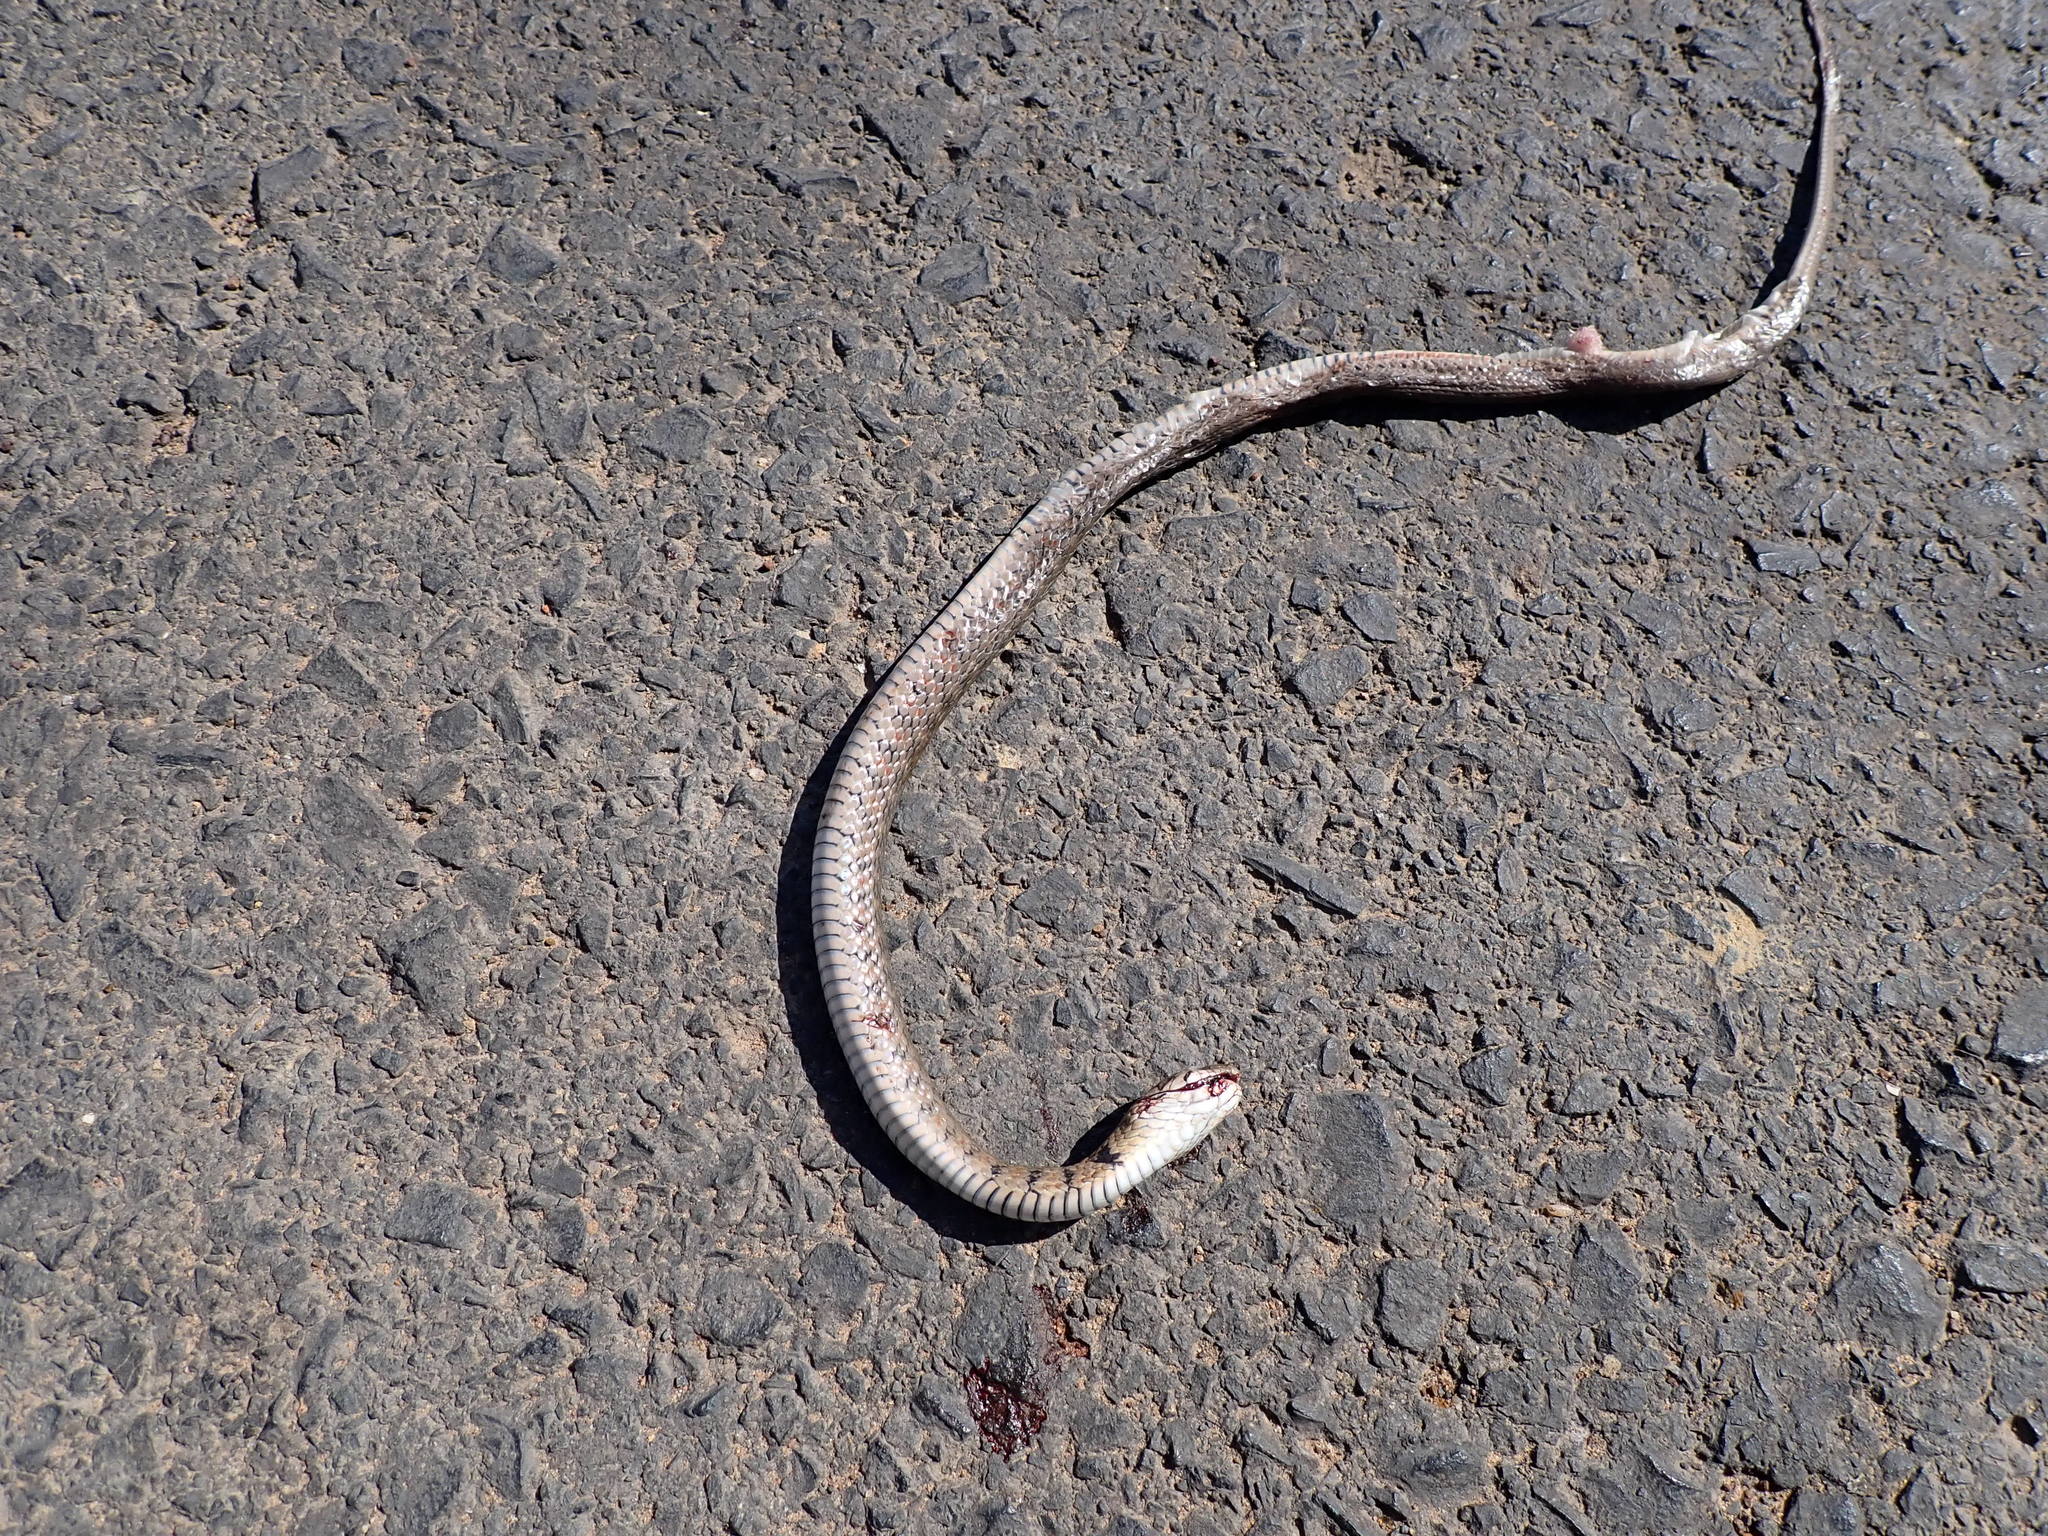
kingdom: Animalia
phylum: Chordata
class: Squamata
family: Colubridae
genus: Fowlea
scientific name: Fowlea flavipunctatus
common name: Yellow-spotted keelback
